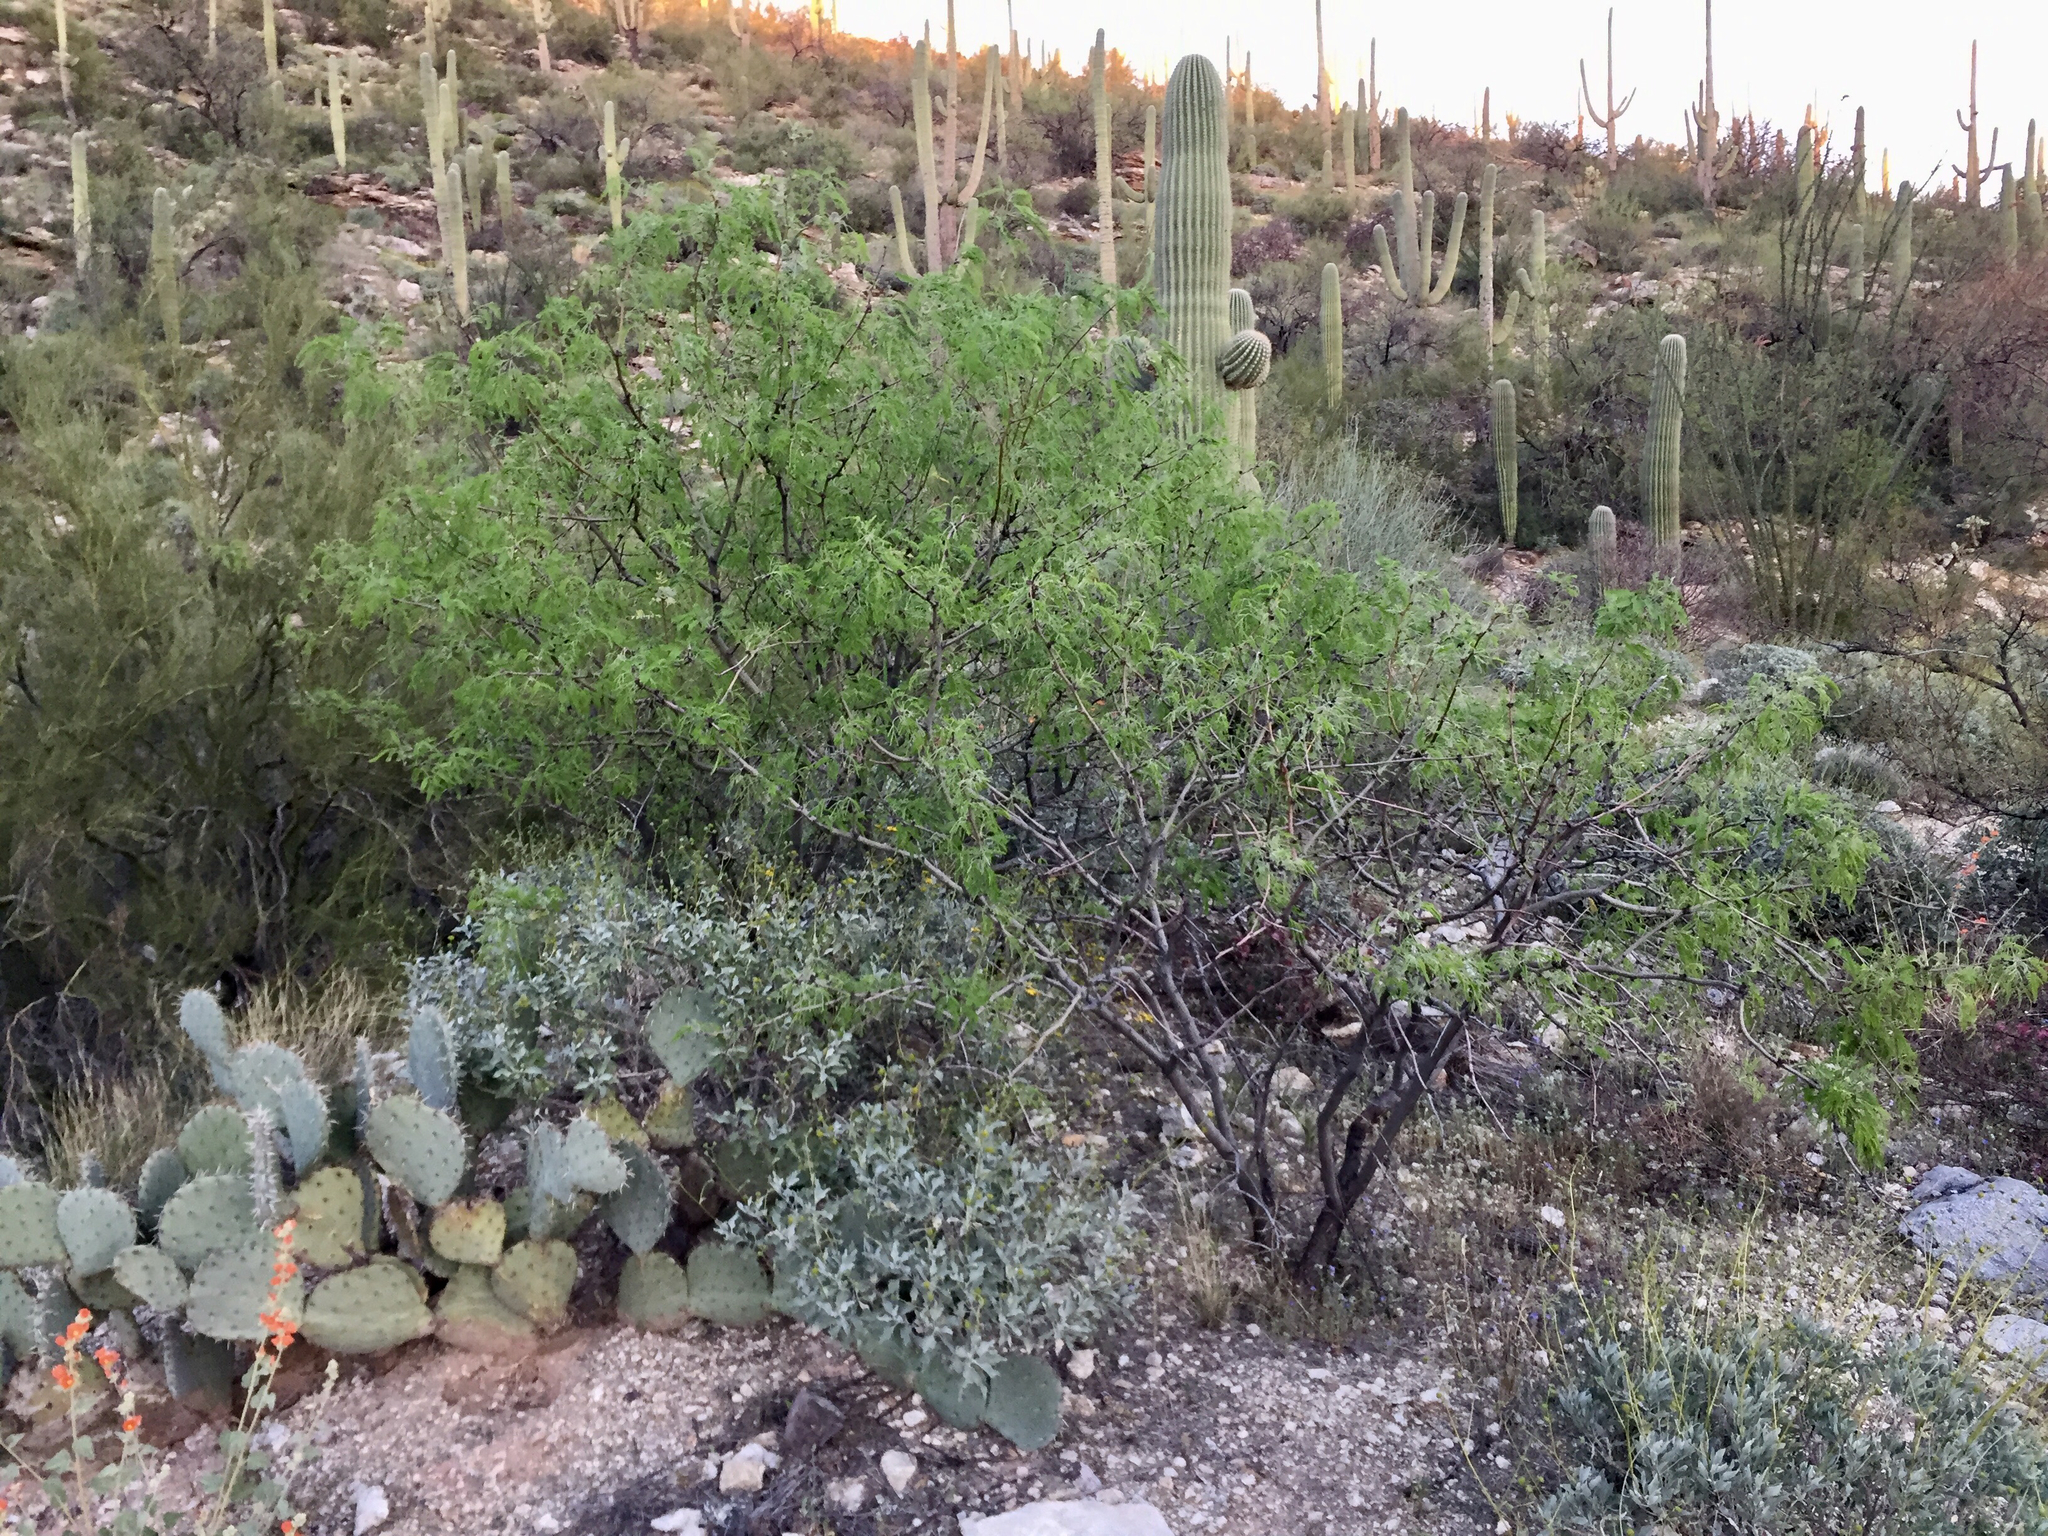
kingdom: Plantae
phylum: Tracheophyta
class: Magnoliopsida
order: Fabales
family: Fabaceae
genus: Prosopis
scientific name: Prosopis velutina
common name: Velvet mesquite
